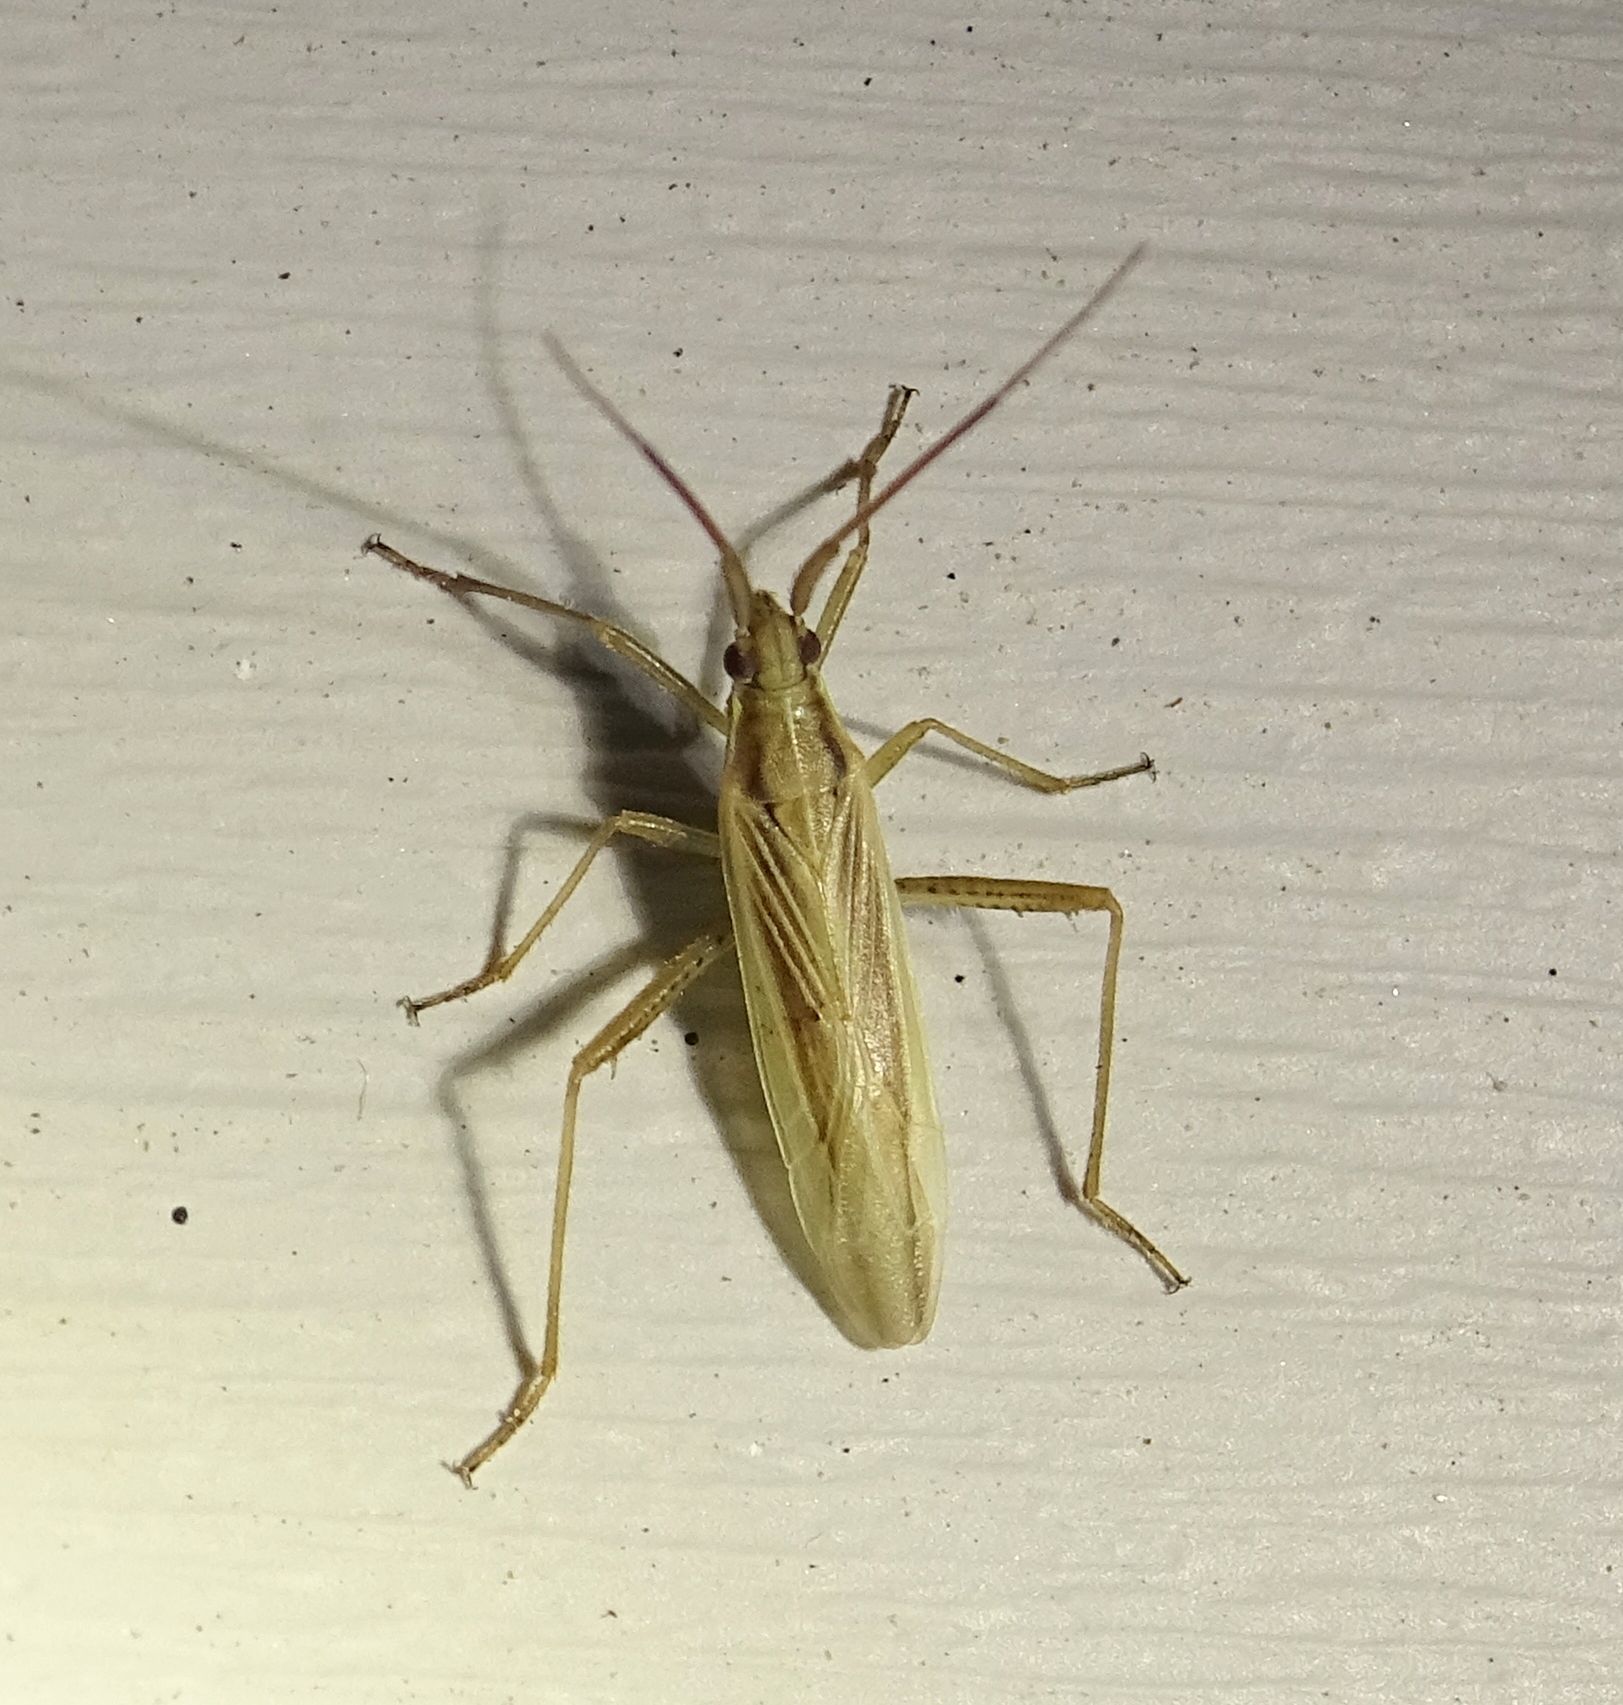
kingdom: Animalia
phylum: Arthropoda
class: Insecta
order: Hemiptera
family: Miridae
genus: Stenodema
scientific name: Stenodema trispinosa
